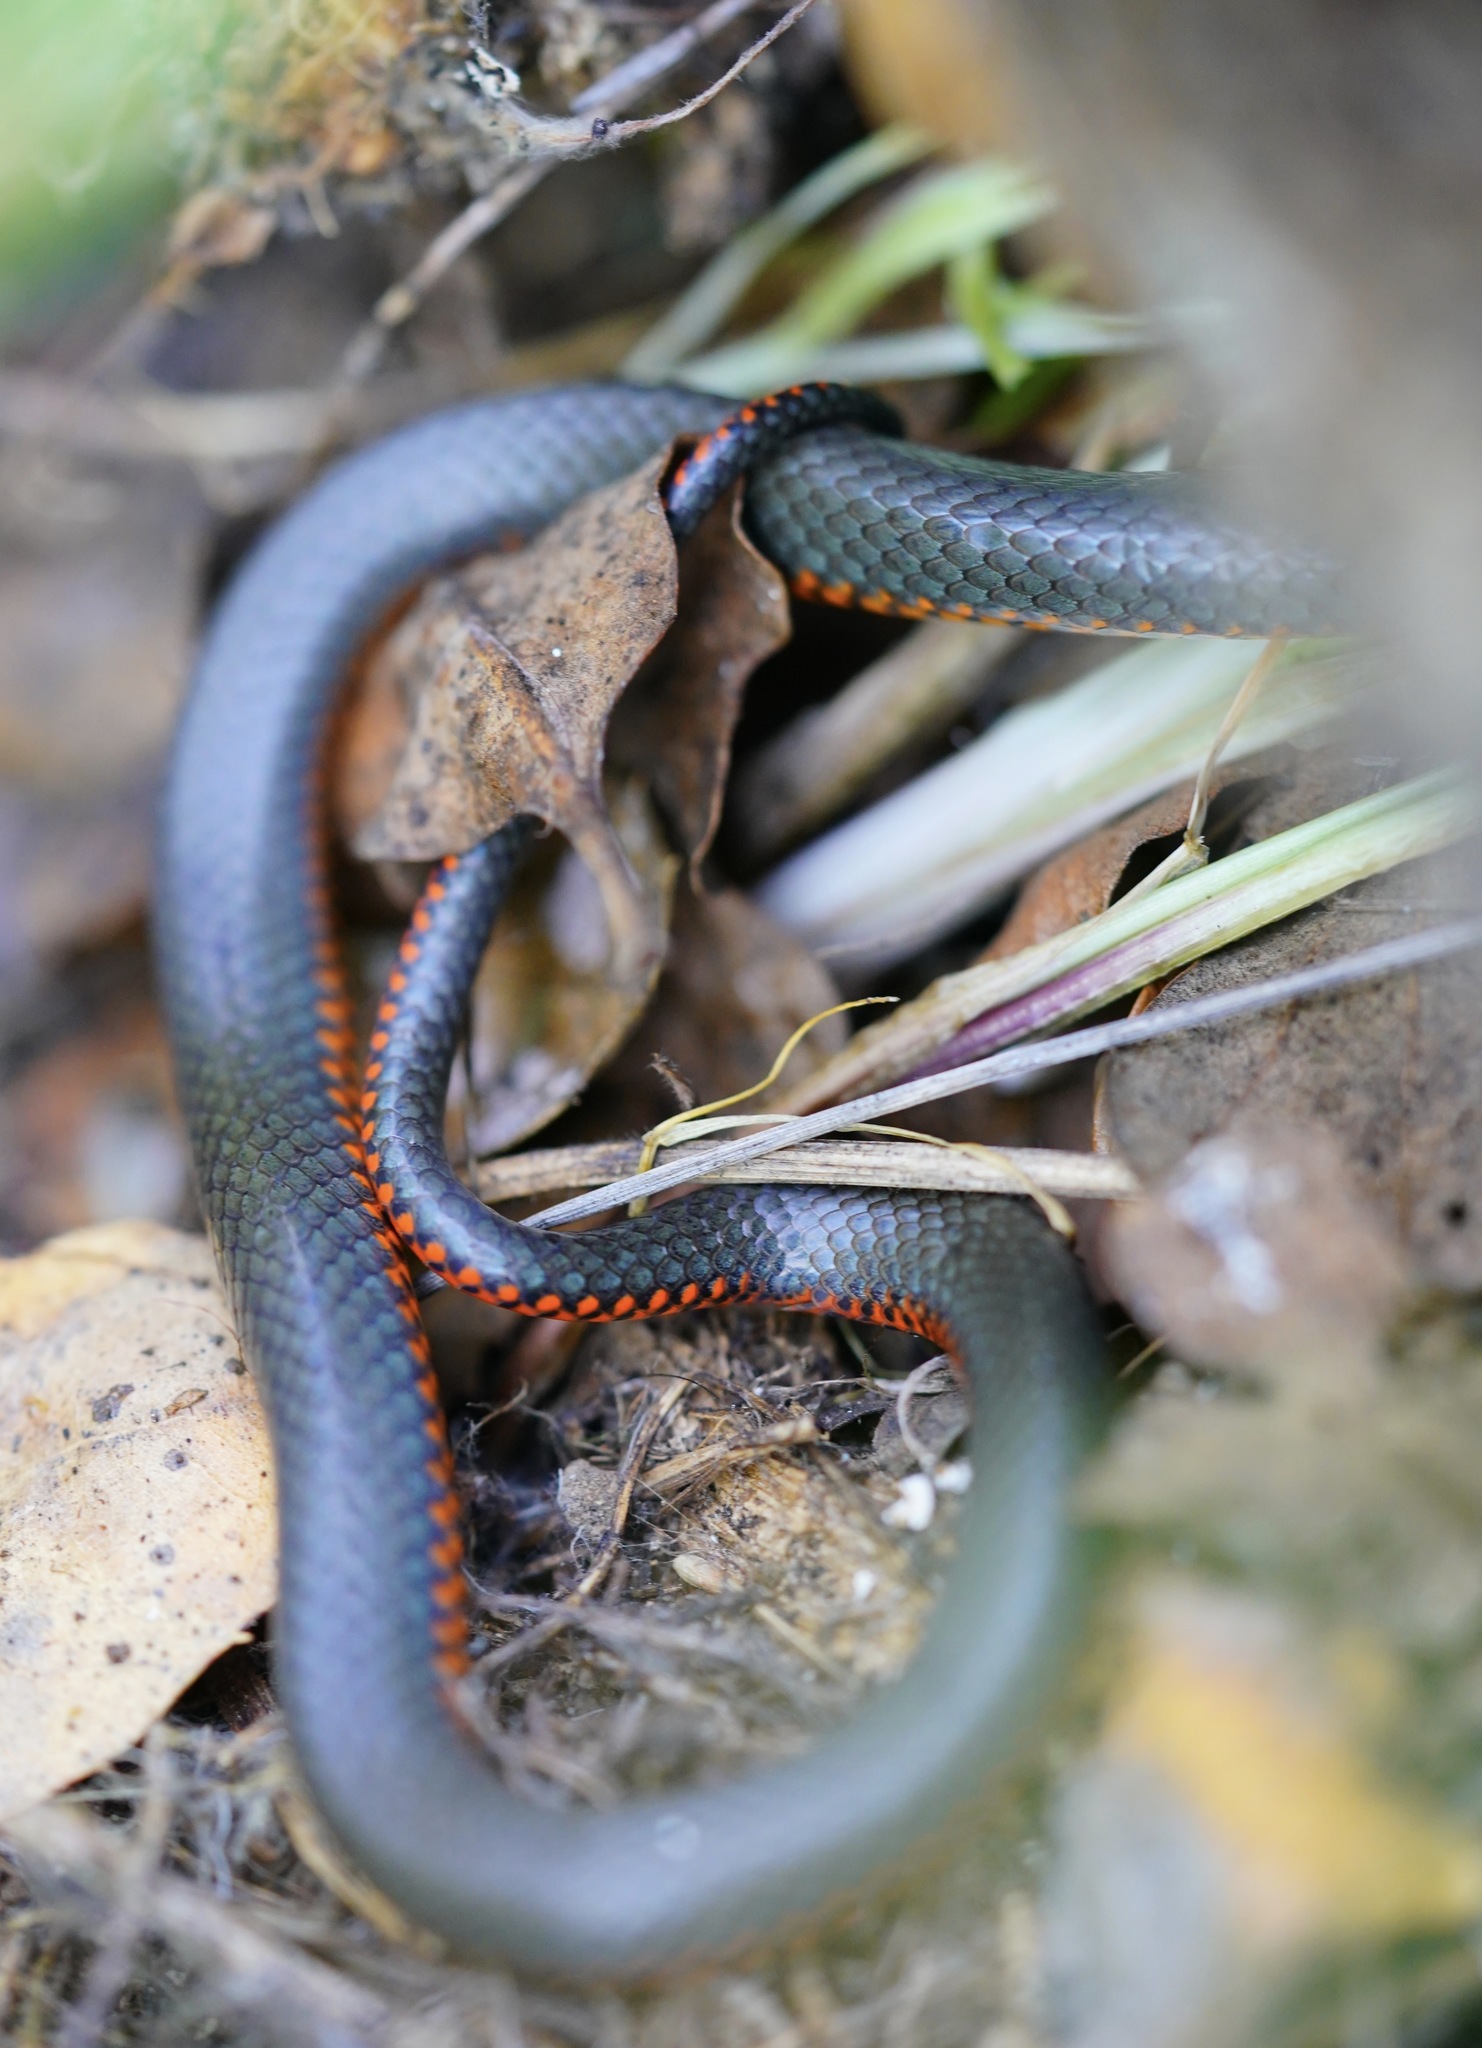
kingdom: Animalia
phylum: Chordata
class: Squamata
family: Colubridae
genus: Diadophis
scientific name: Diadophis punctatus
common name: Ringneck snake
